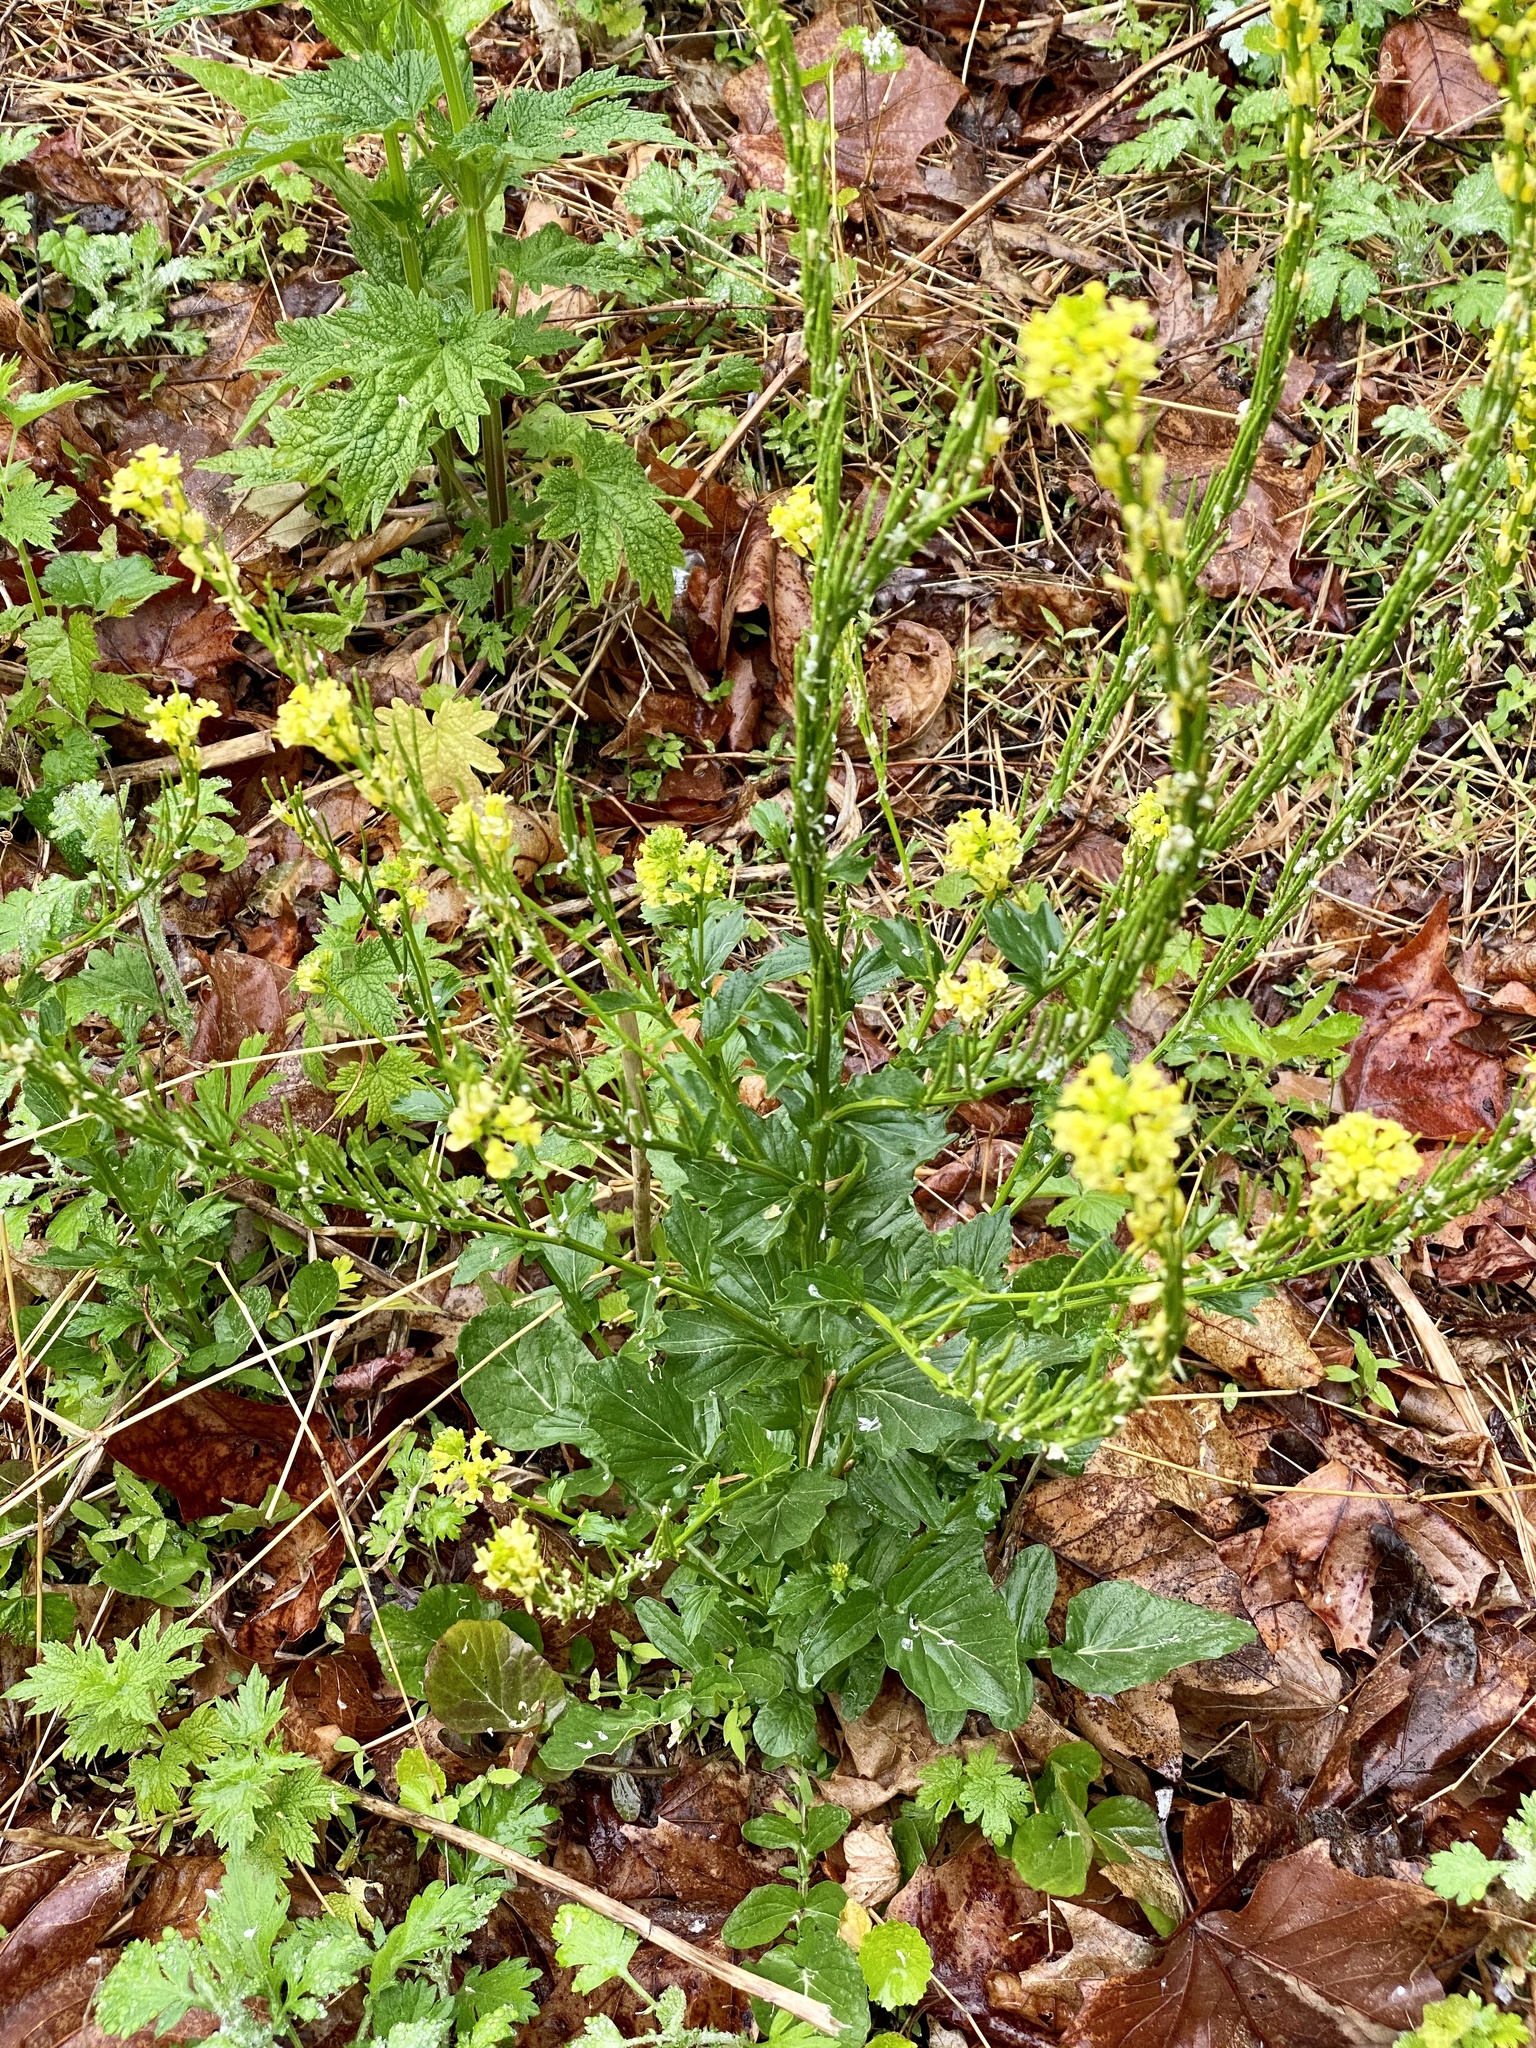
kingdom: Plantae
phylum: Tracheophyta
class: Magnoliopsida
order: Brassicales
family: Brassicaceae
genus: Barbarea
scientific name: Barbarea vulgaris
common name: Cressy-greens
